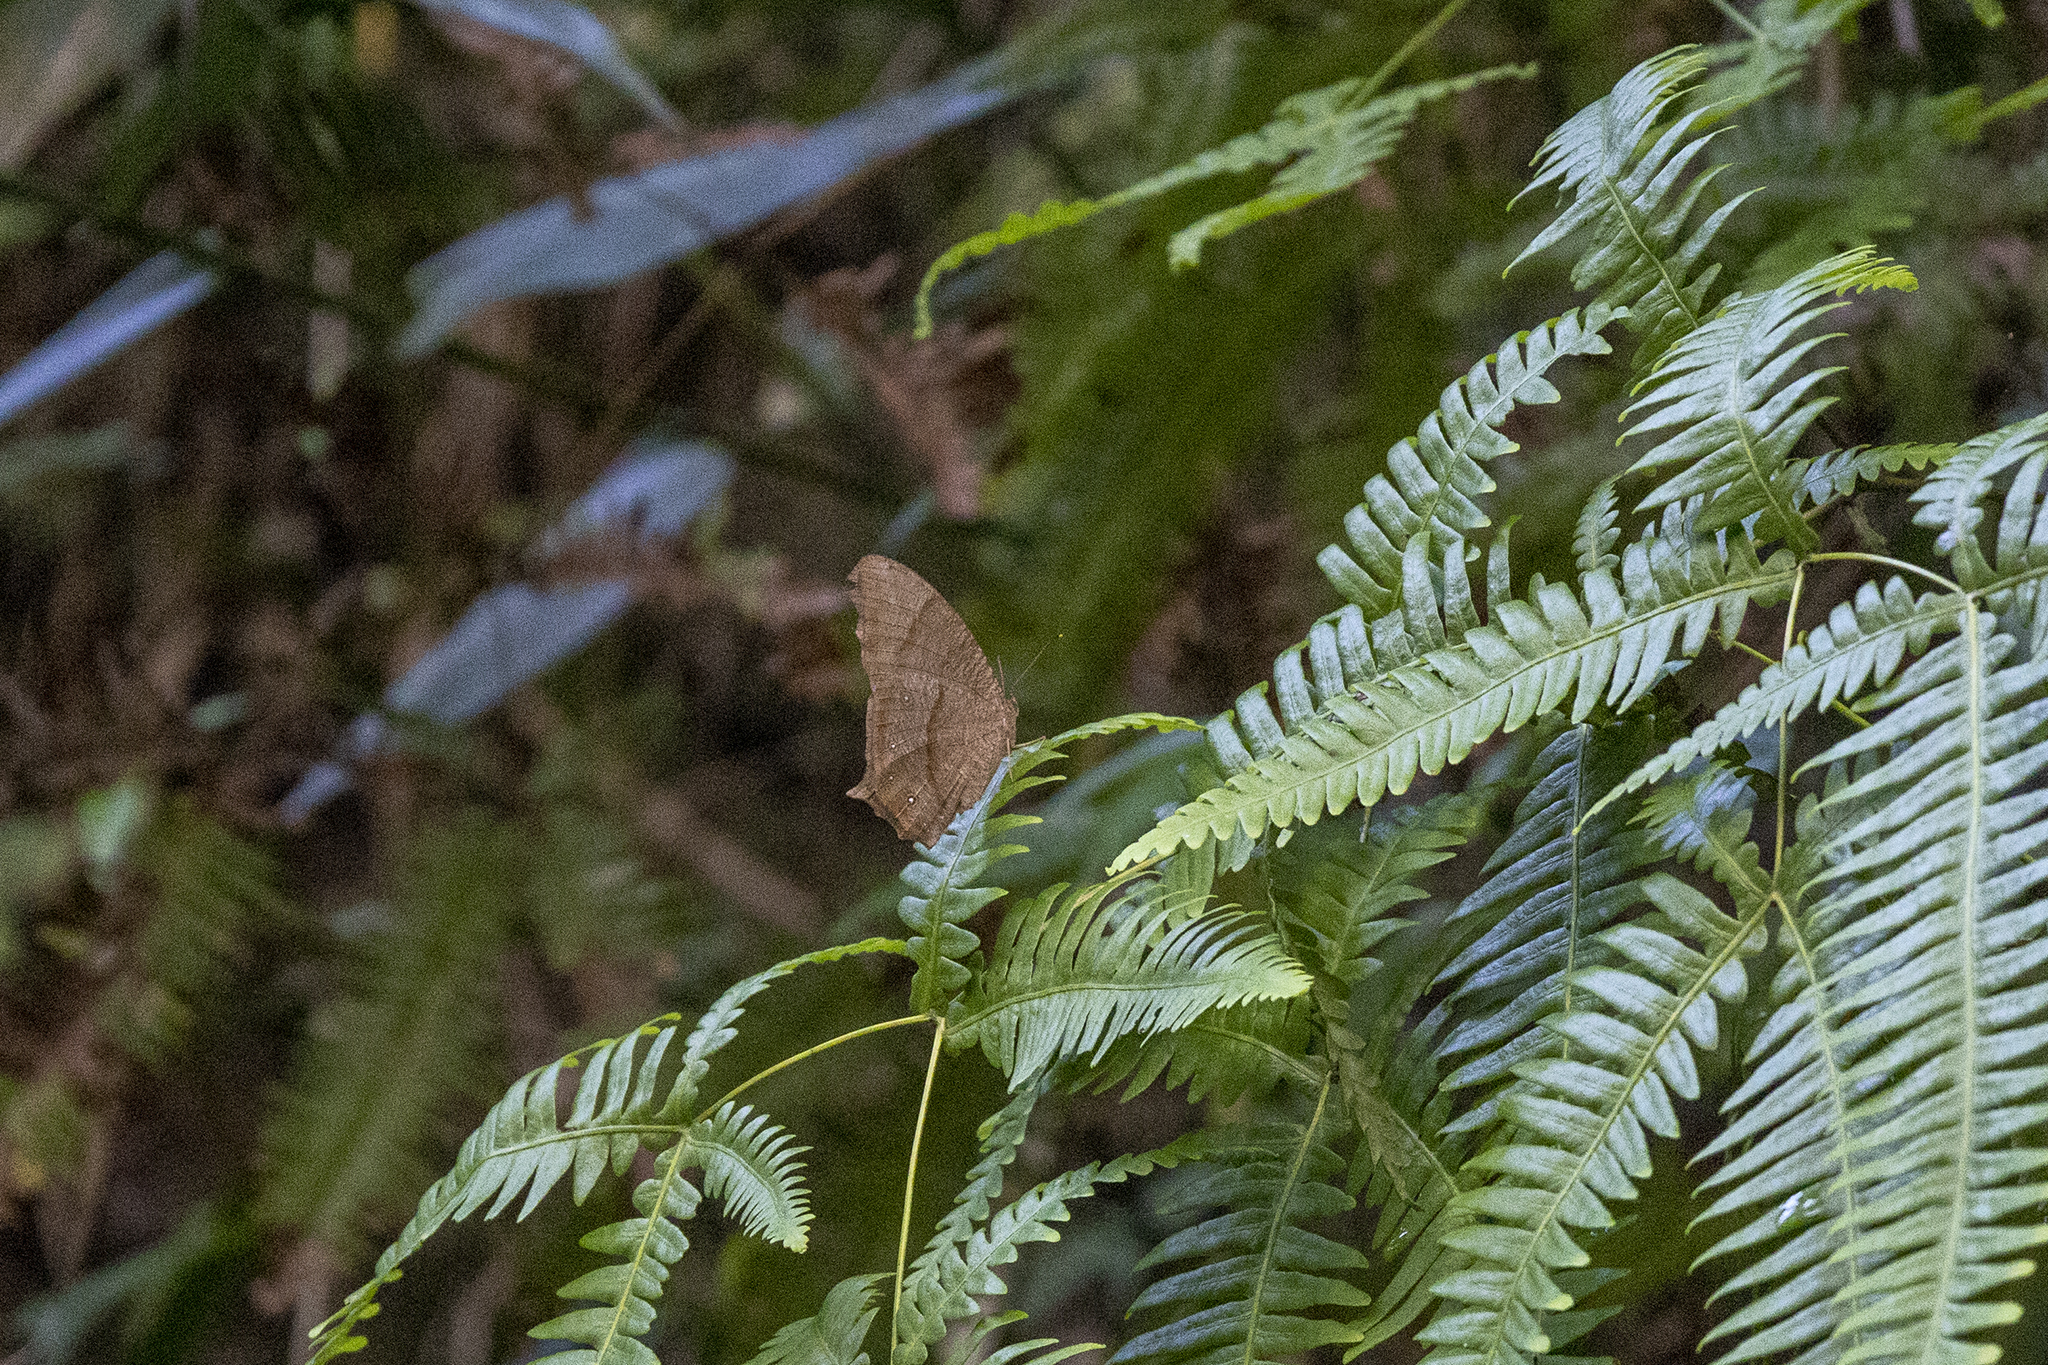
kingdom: Animalia
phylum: Arthropoda
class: Insecta
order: Lepidoptera
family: Nymphalidae
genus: Melanitis
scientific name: Melanitis phedima
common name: Dark evening brown
